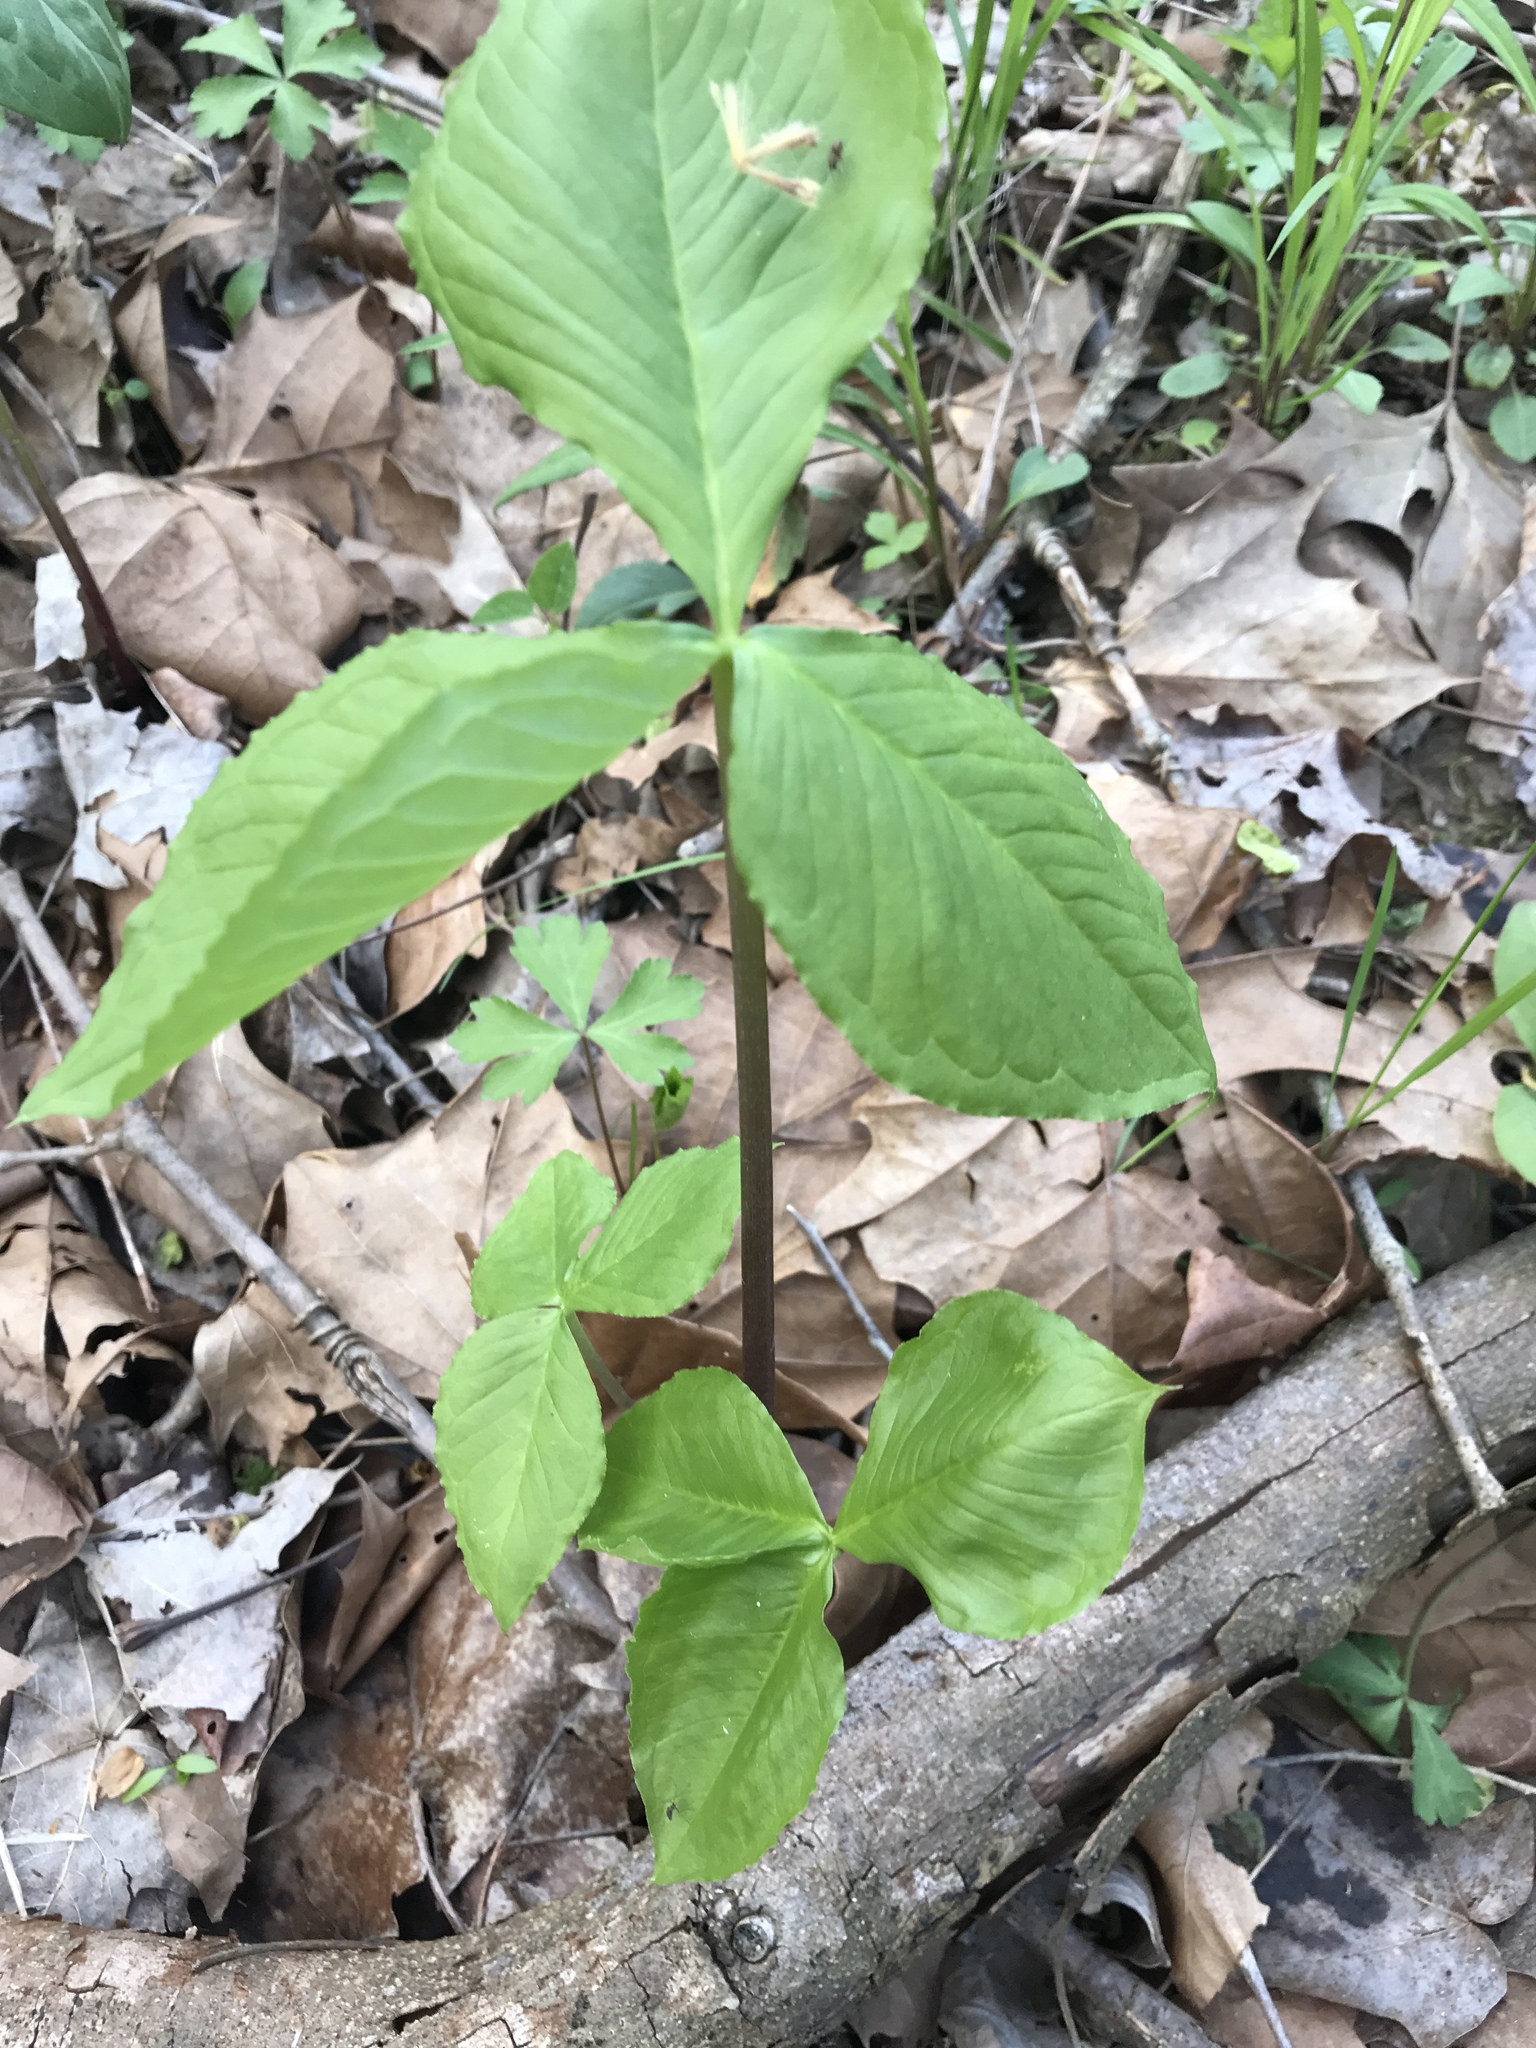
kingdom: Plantae
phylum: Tracheophyta
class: Liliopsida
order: Alismatales
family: Araceae
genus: Arisaema
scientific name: Arisaema triphyllum
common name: Jack-in-the-pulpit
